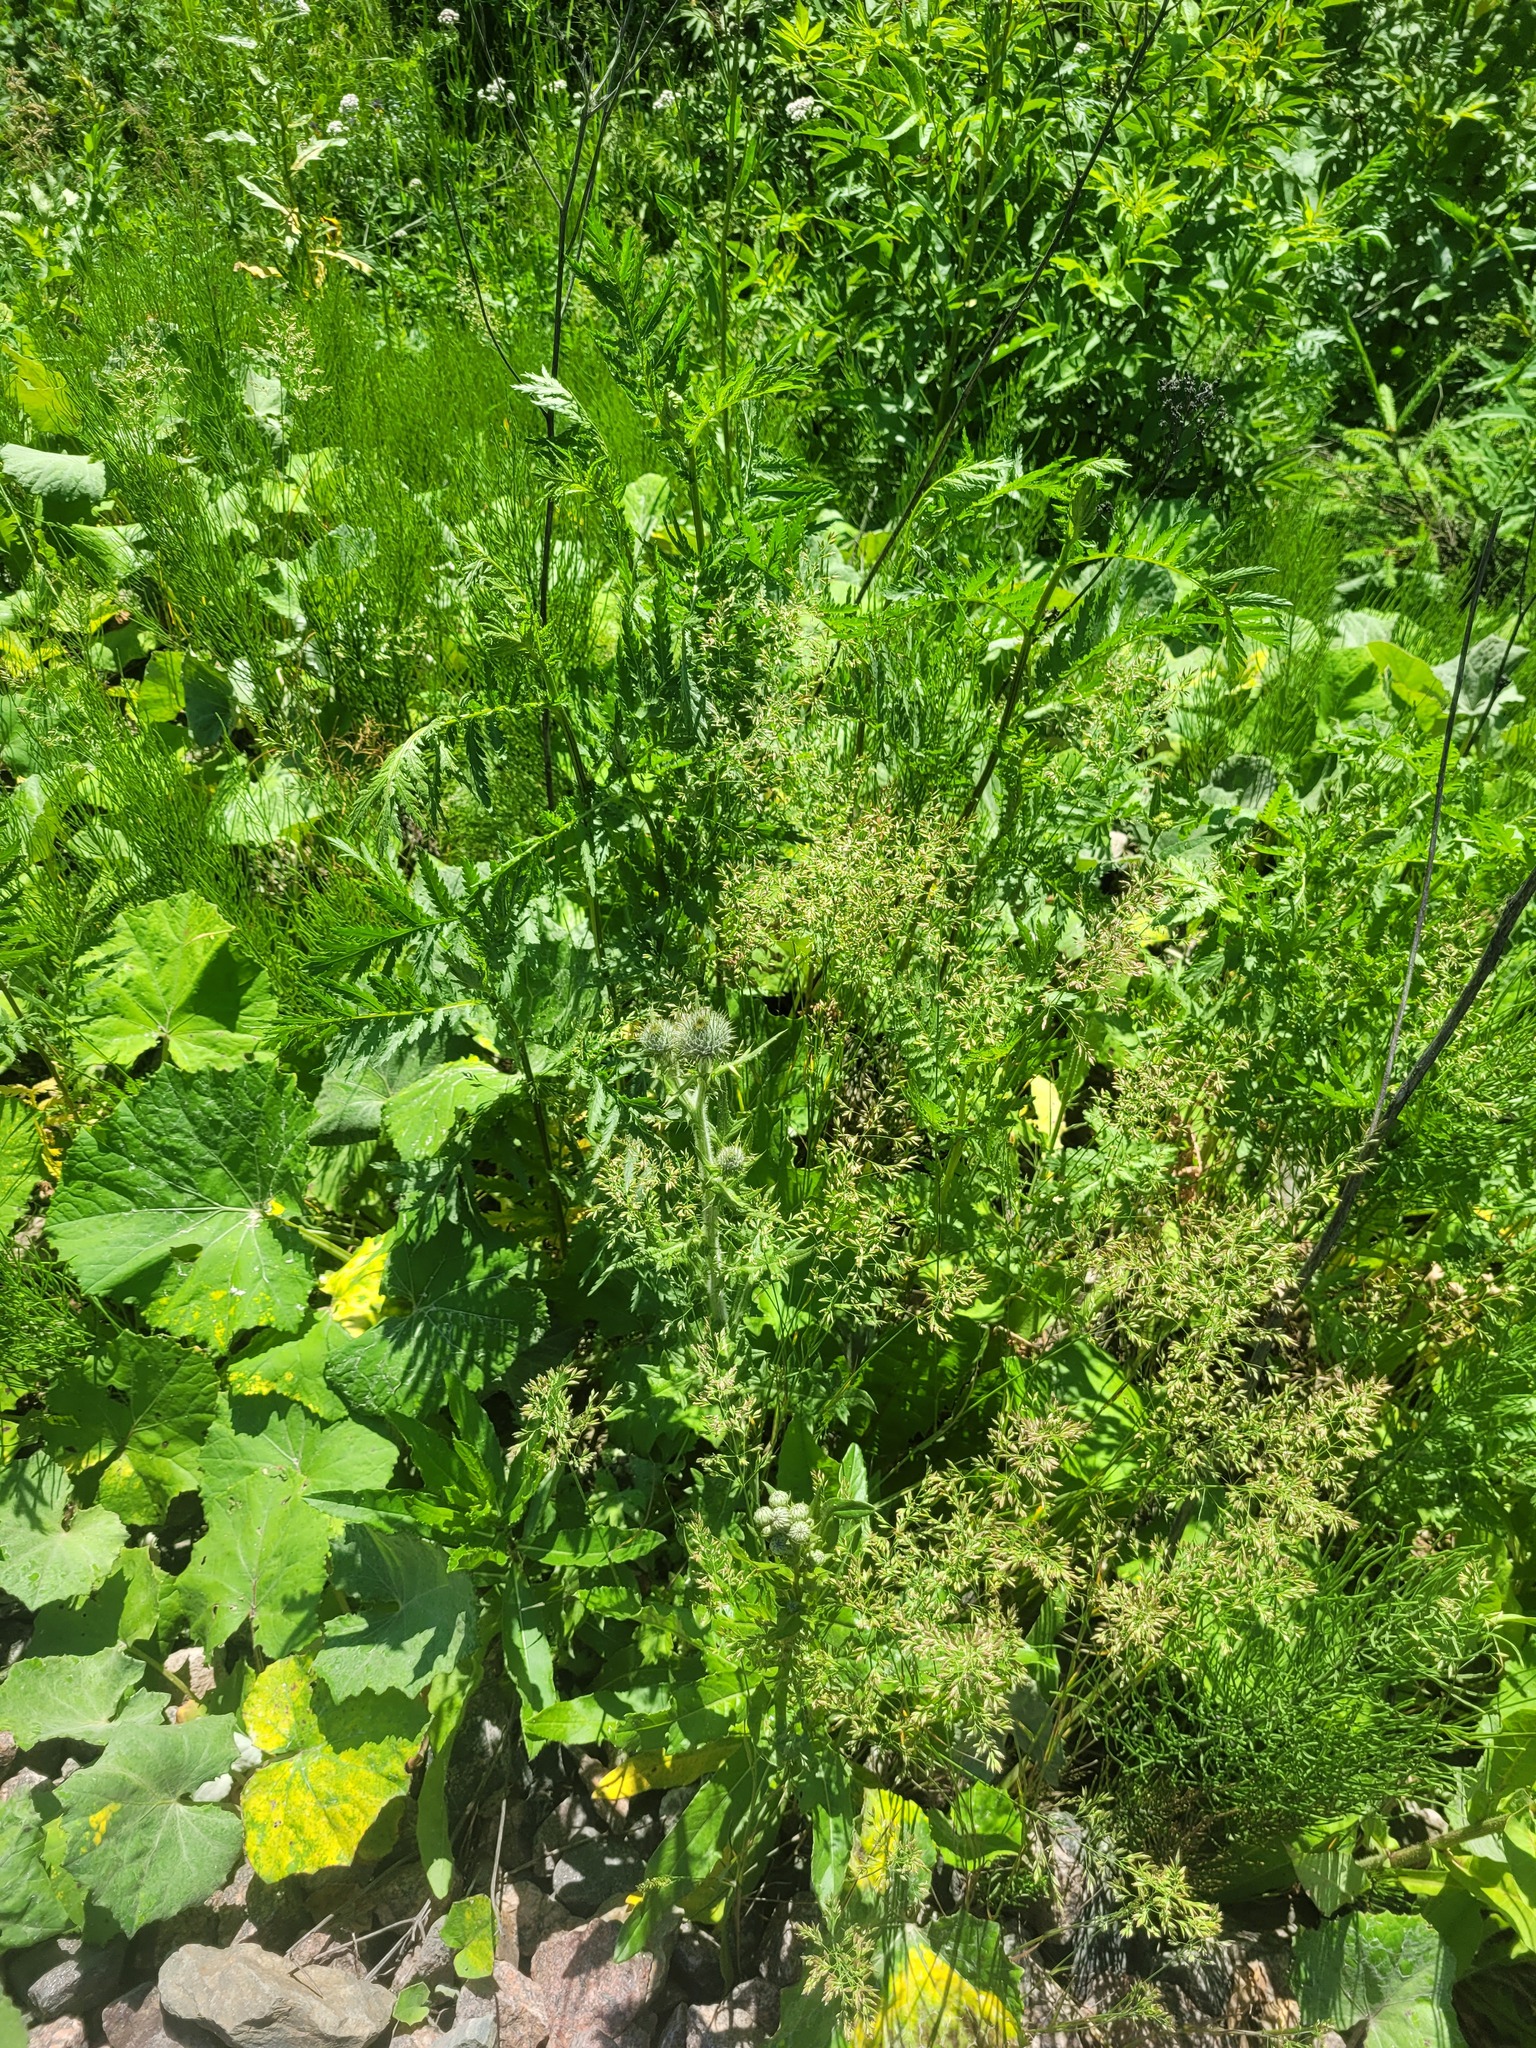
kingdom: Plantae
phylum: Tracheophyta
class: Magnoliopsida
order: Asterales
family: Asteraceae
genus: Cirsium
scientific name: Cirsium vulgare
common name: Bull thistle
